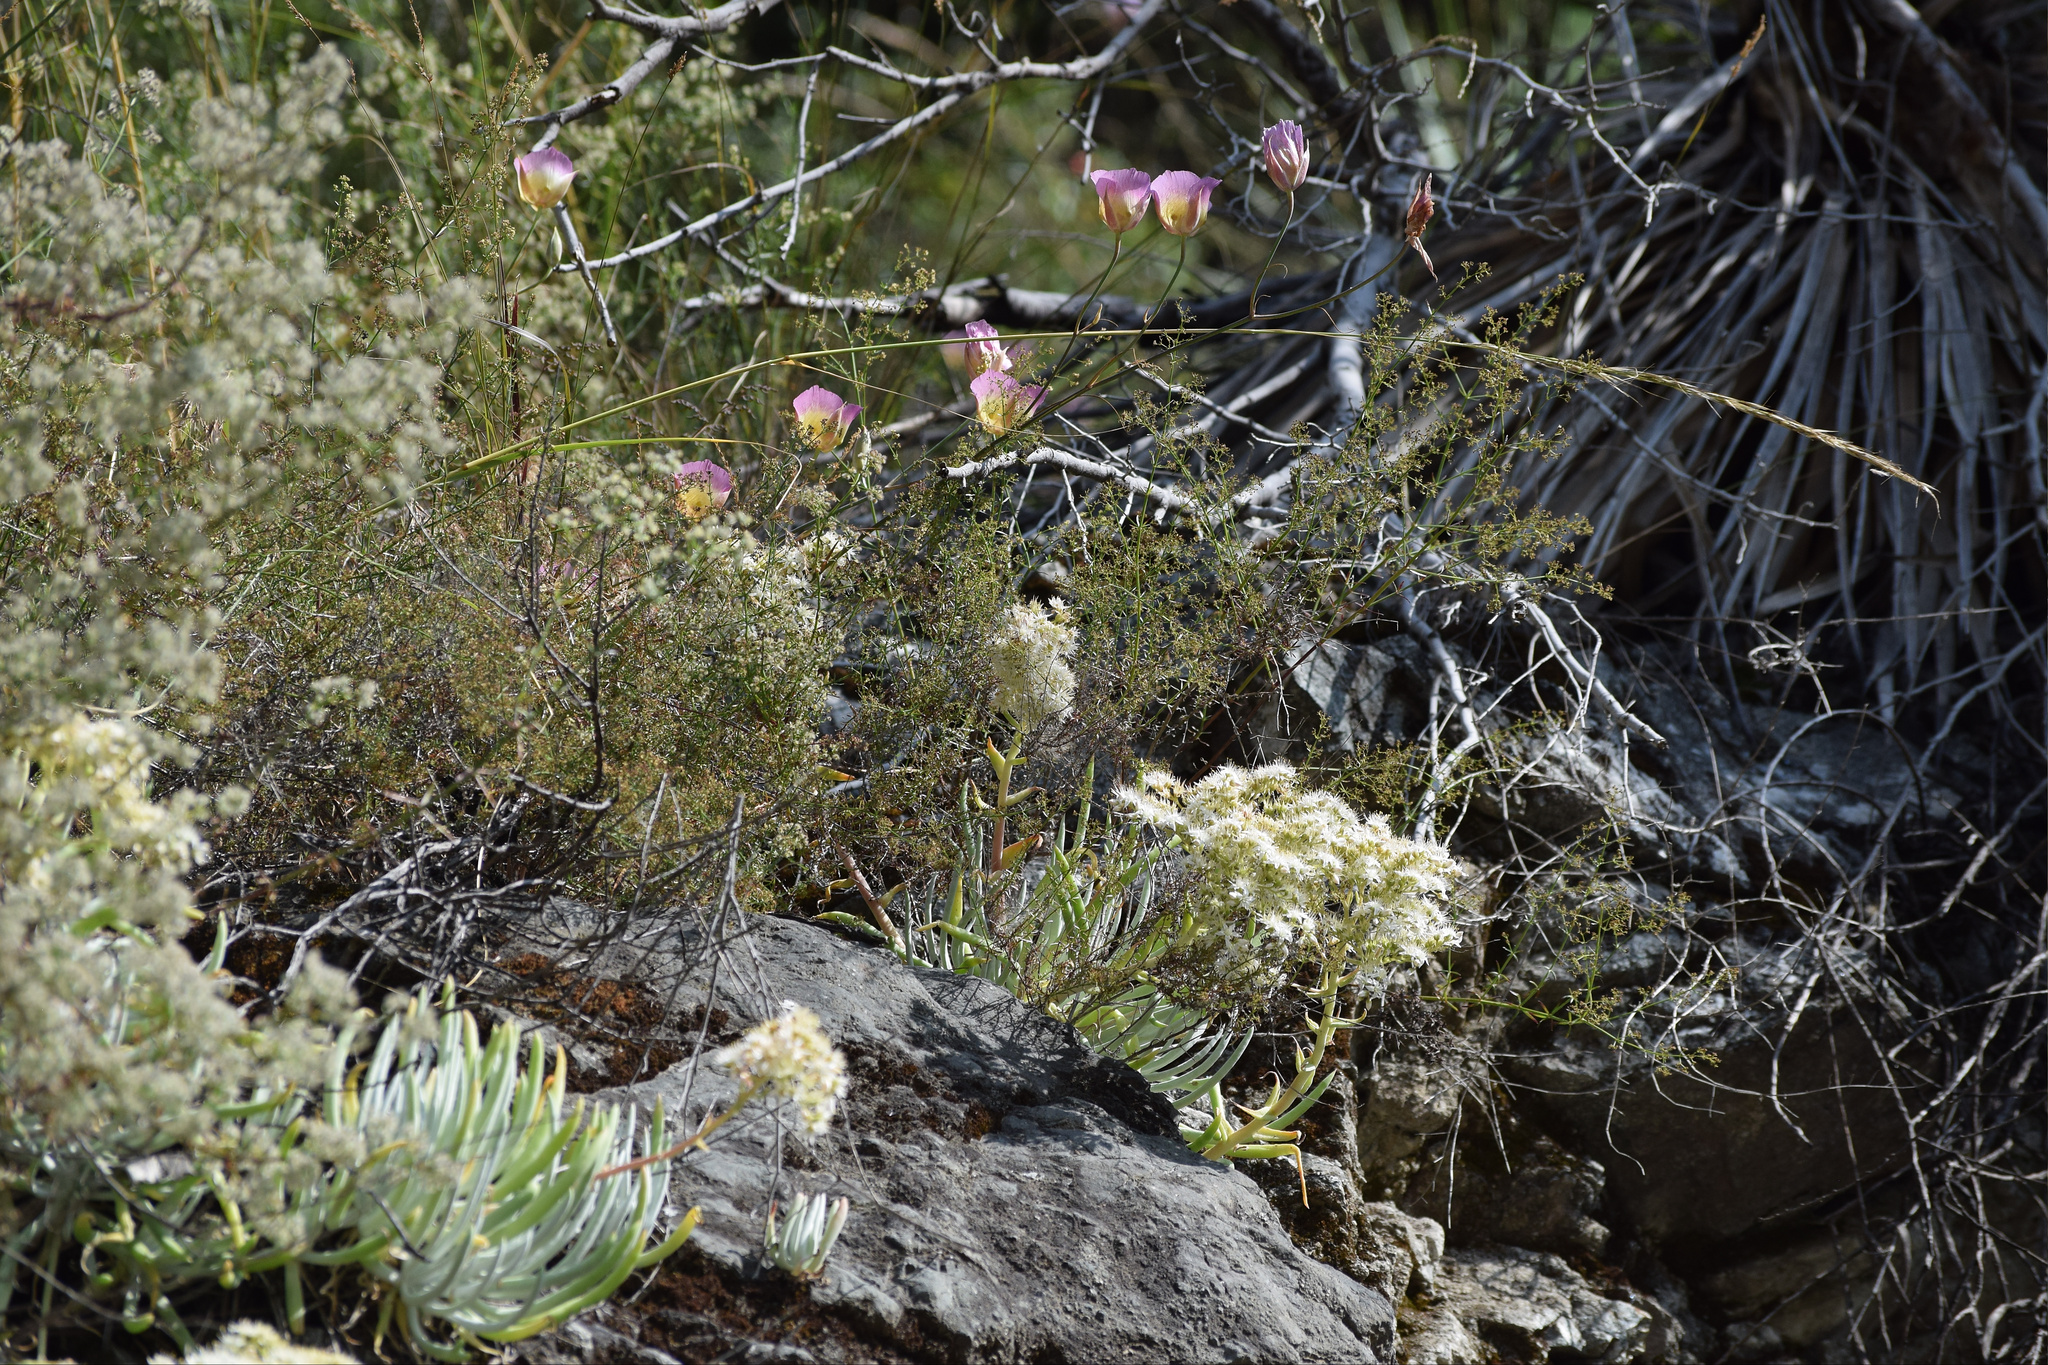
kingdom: Plantae
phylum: Tracheophyta
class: Liliopsida
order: Liliales
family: Liliaceae
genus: Calochortus
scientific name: Calochortus plummerae
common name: Plummer's mariposa-lily
